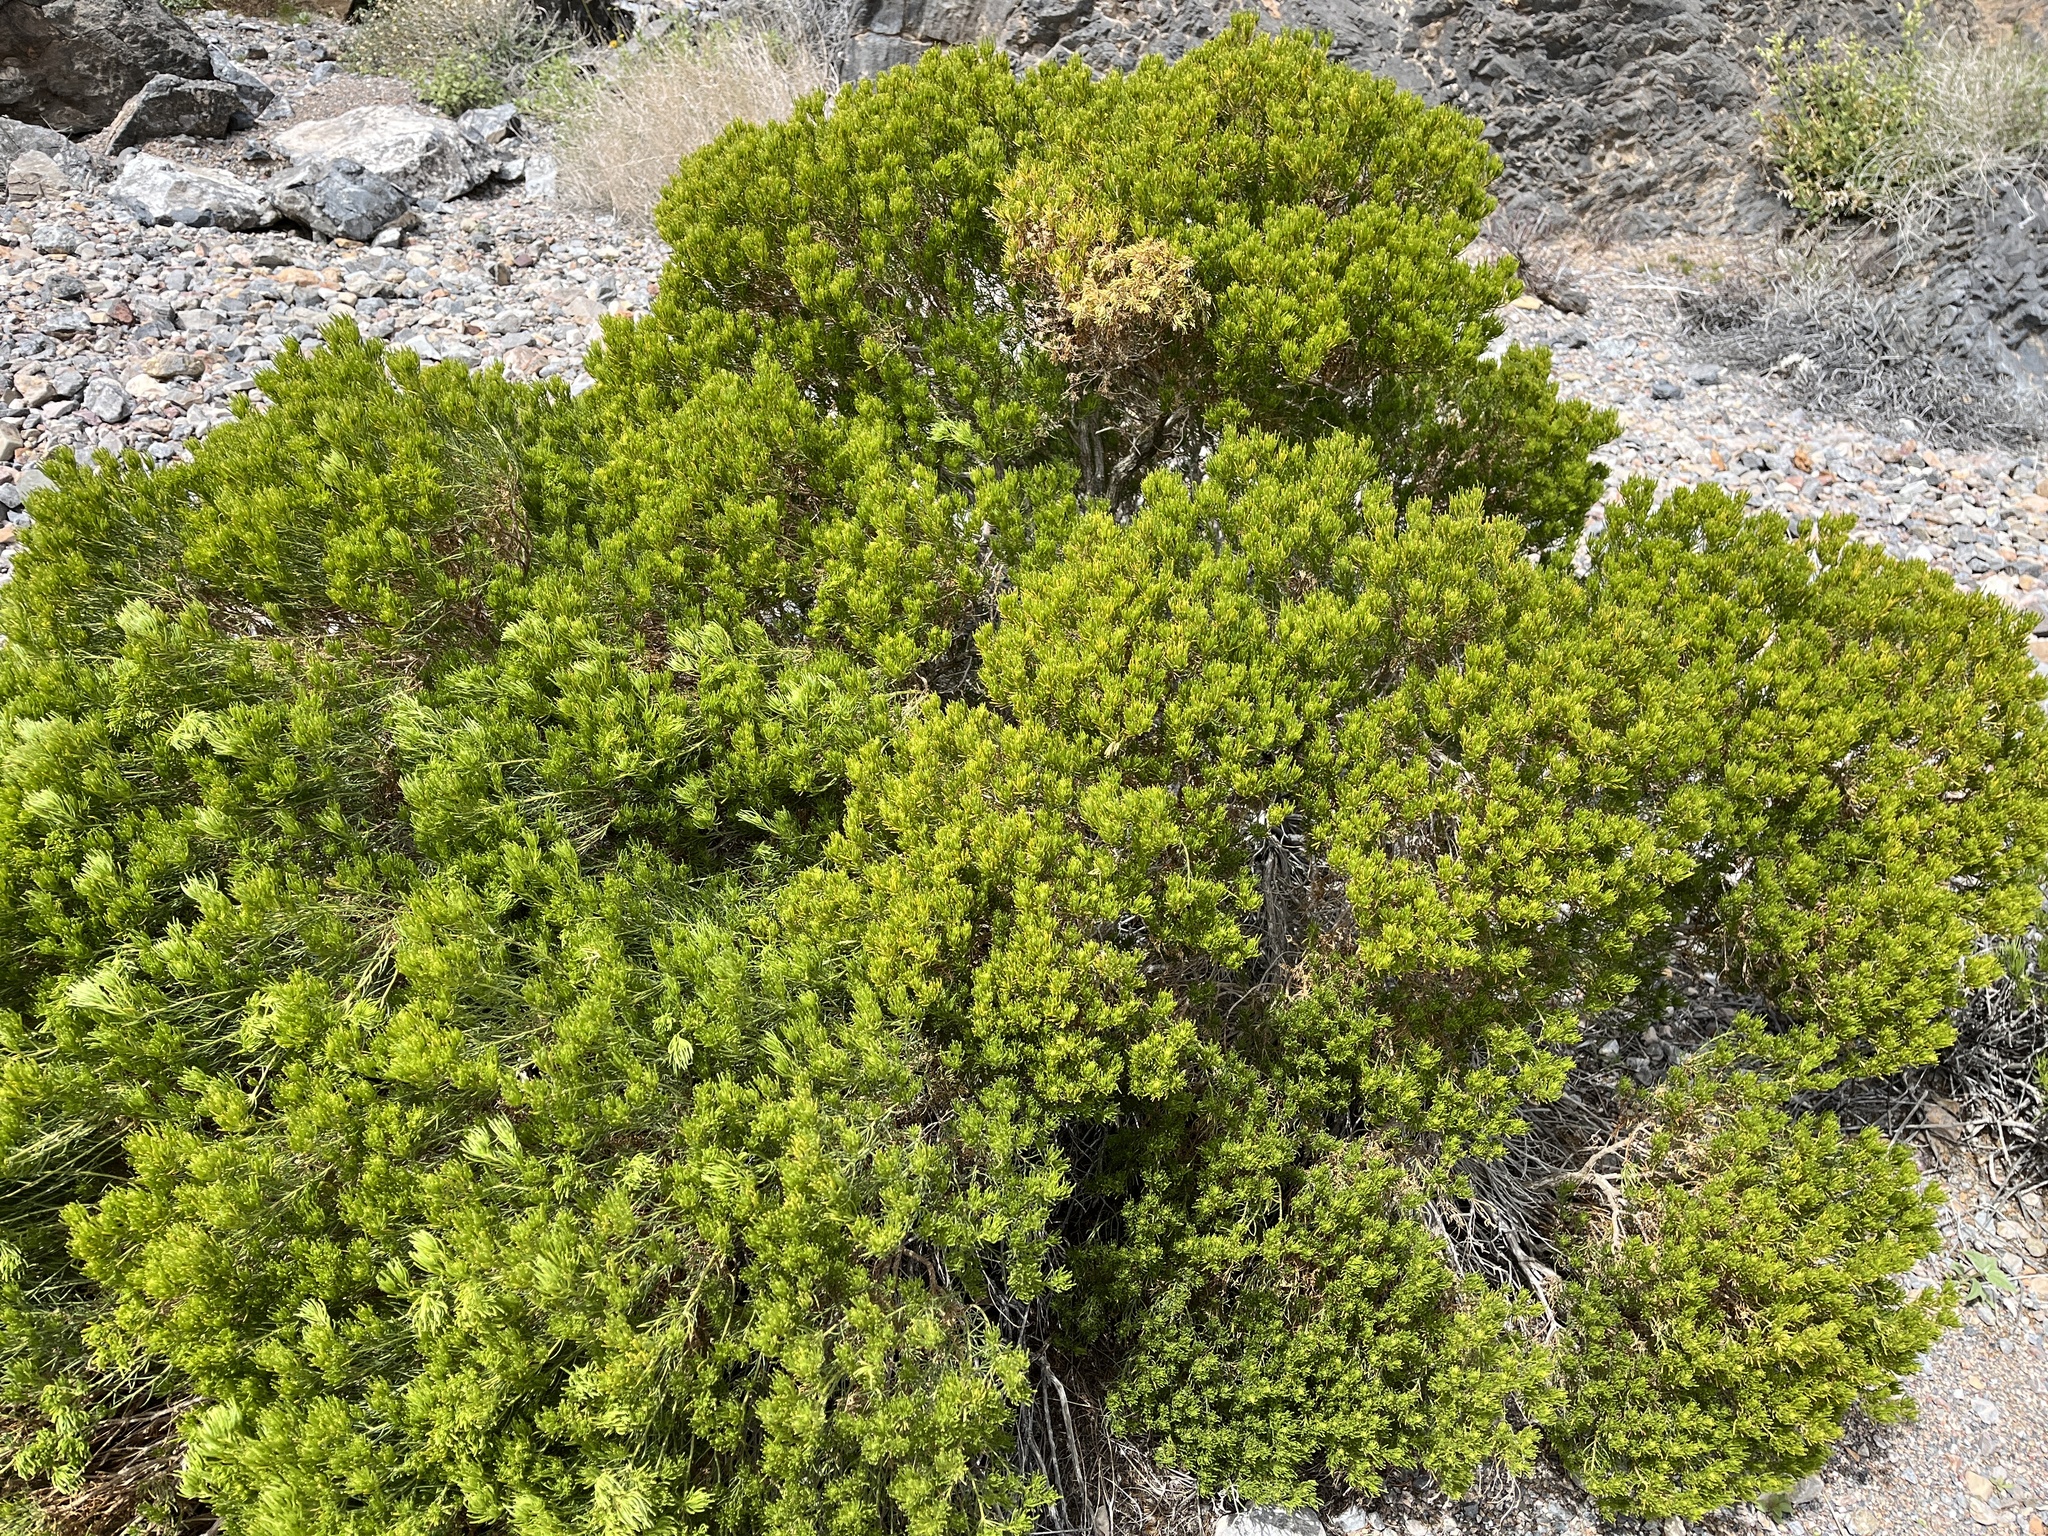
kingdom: Plantae
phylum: Tracheophyta
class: Magnoliopsida
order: Asterales
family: Asteraceae
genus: Peucephyllum
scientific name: Peucephyllum schottii
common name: Pygmy-cedar
